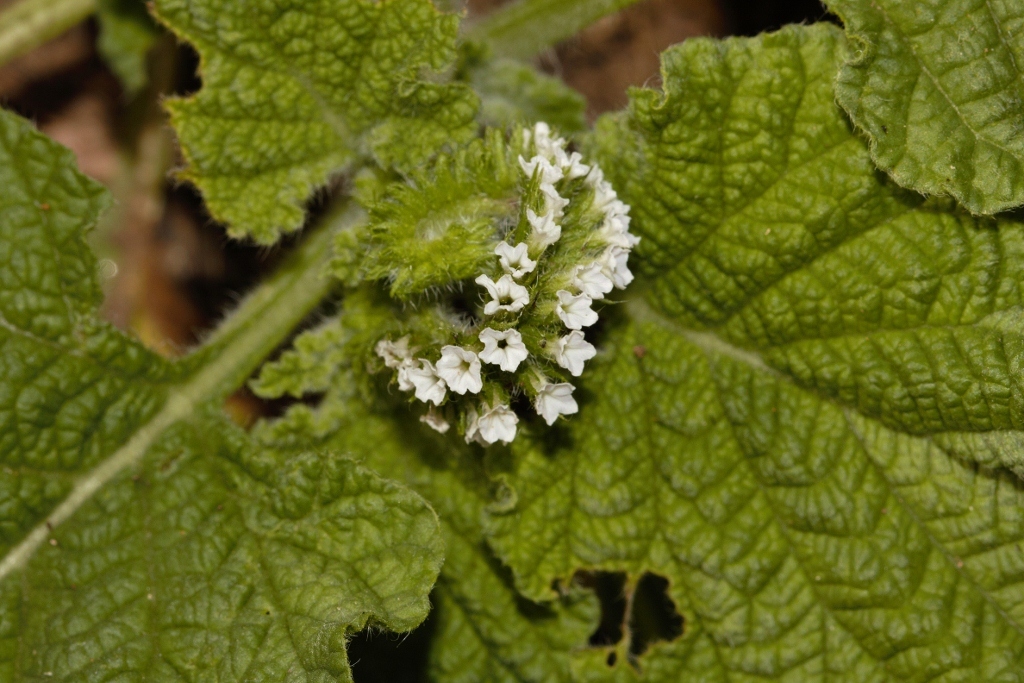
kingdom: Plantae
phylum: Tracheophyta
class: Magnoliopsida
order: Boraginales
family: Heliotropiaceae
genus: Heliotropium
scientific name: Heliotropium indicum
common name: Indian heliotrope
